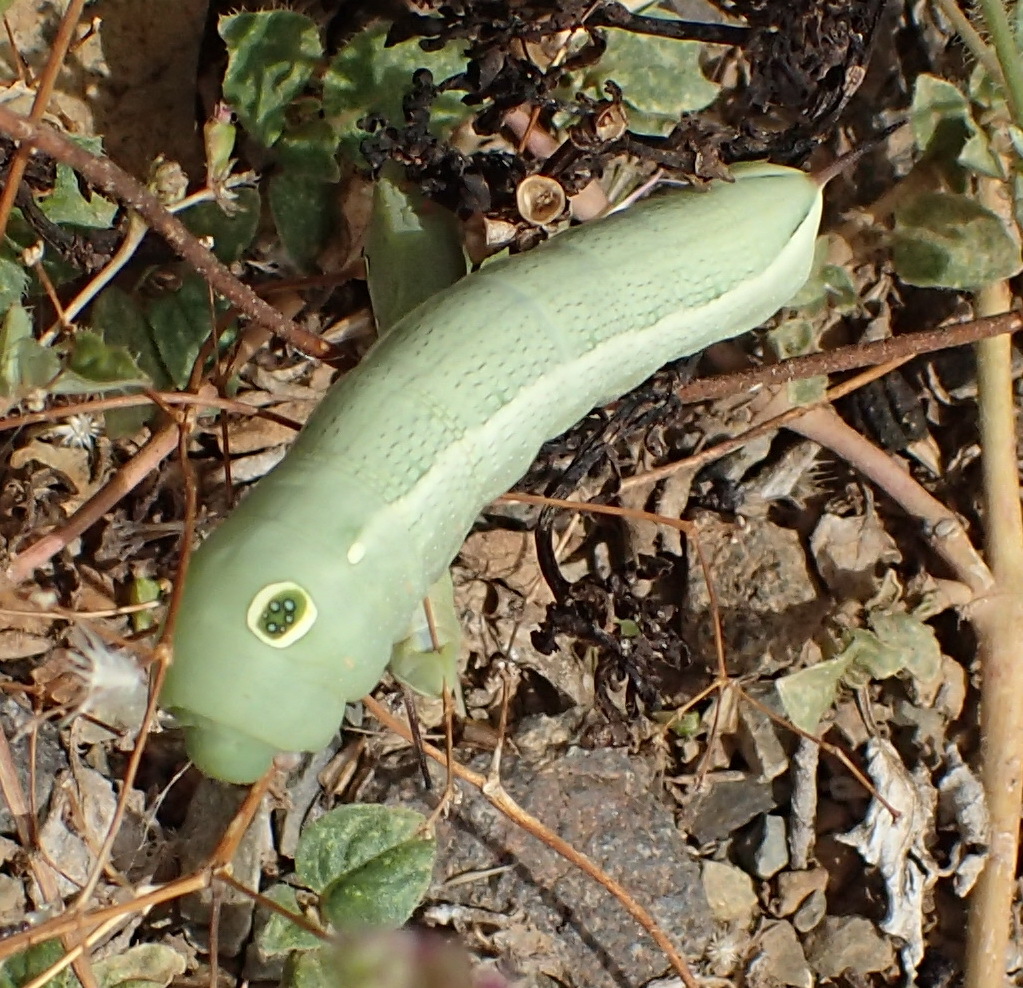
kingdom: Animalia
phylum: Arthropoda
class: Insecta
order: Lepidoptera
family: Sphingidae
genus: Hippotion
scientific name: Hippotion celerio
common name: Silver-striped hawk-moth
